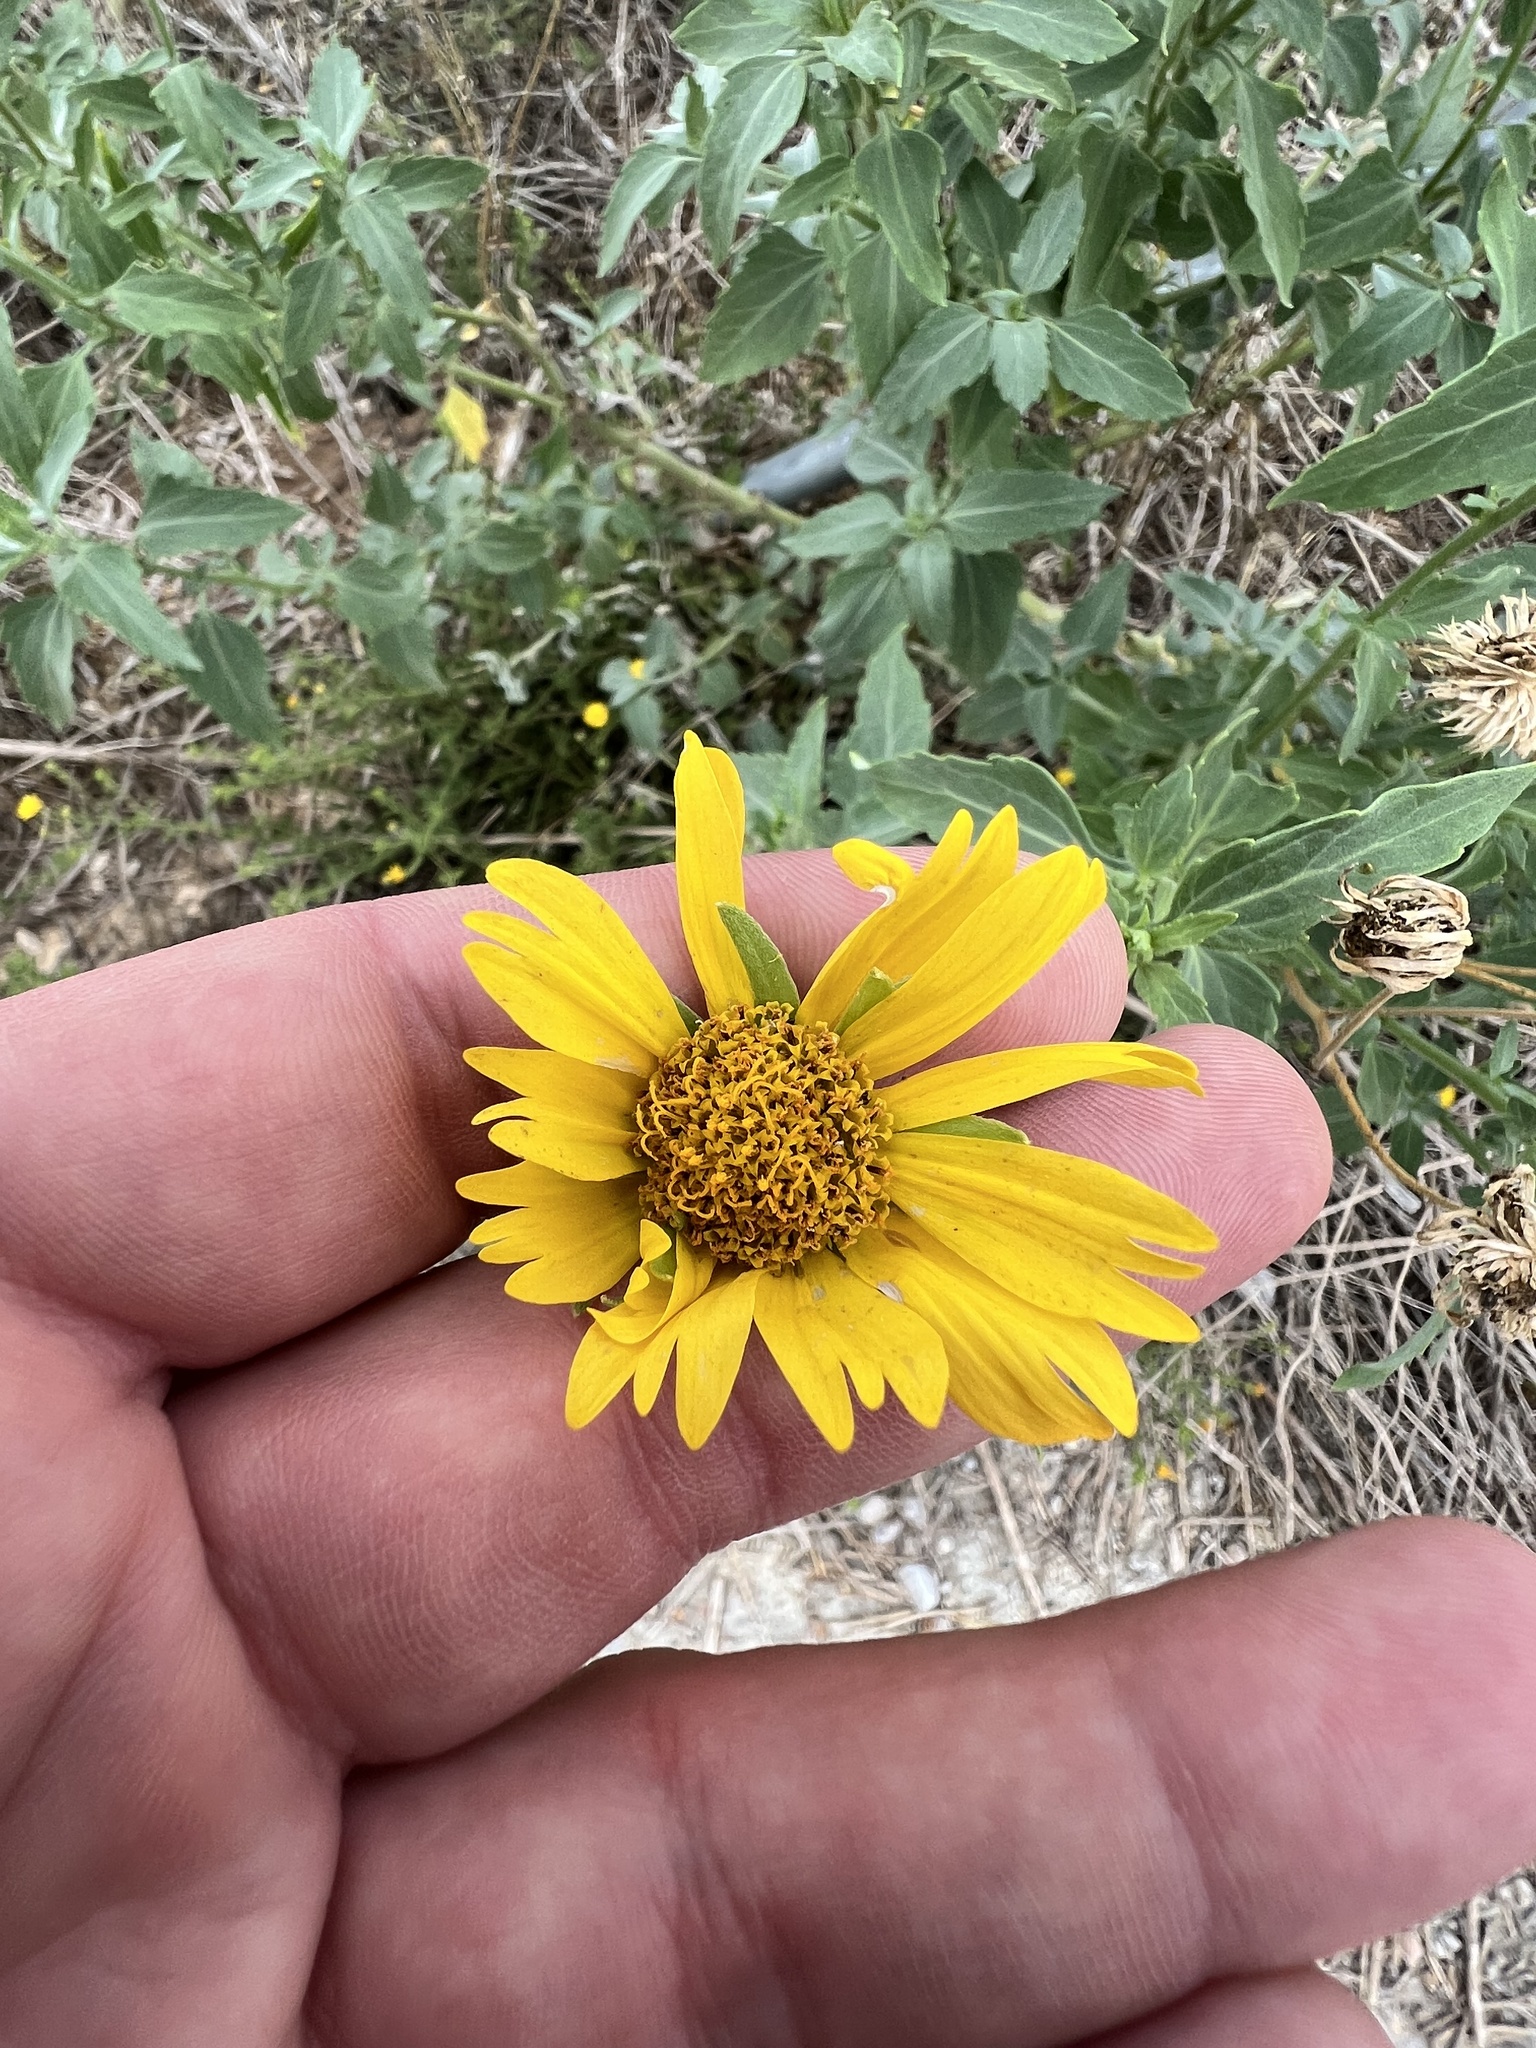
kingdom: Plantae
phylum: Tracheophyta
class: Magnoliopsida
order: Asterales
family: Asteraceae
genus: Verbesina
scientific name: Verbesina encelioides
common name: Golden crownbeard
